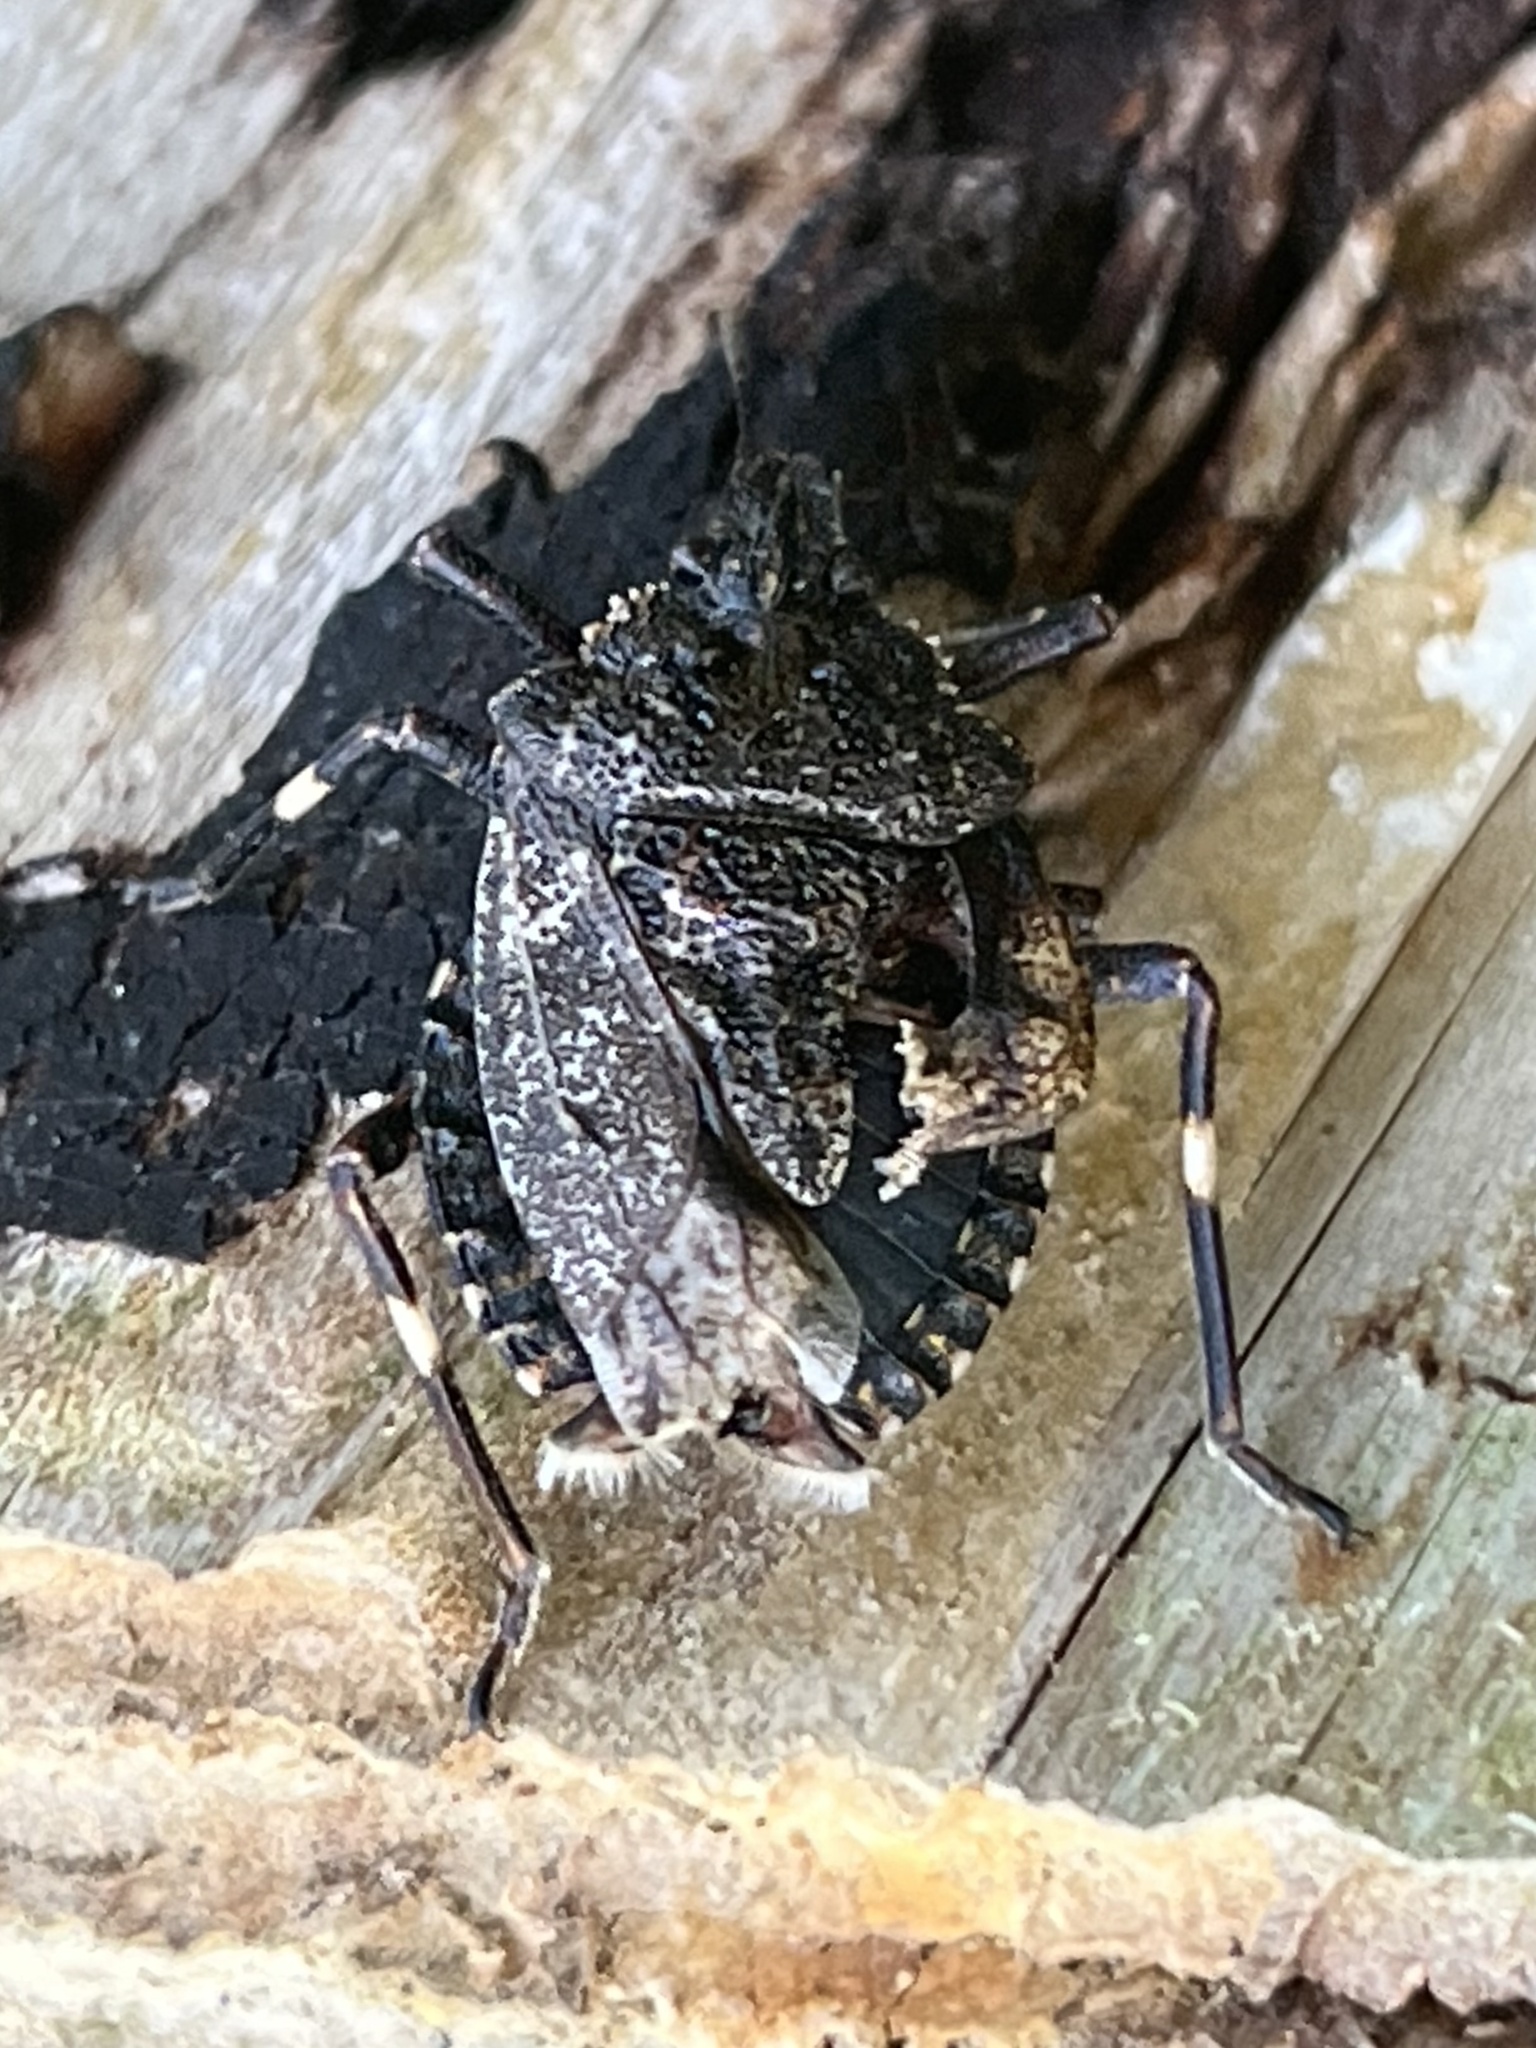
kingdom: Animalia
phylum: Arthropoda
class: Insecta
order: Hemiptera
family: Pentatomidae
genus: Brochymena
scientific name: Brochymena affinis
